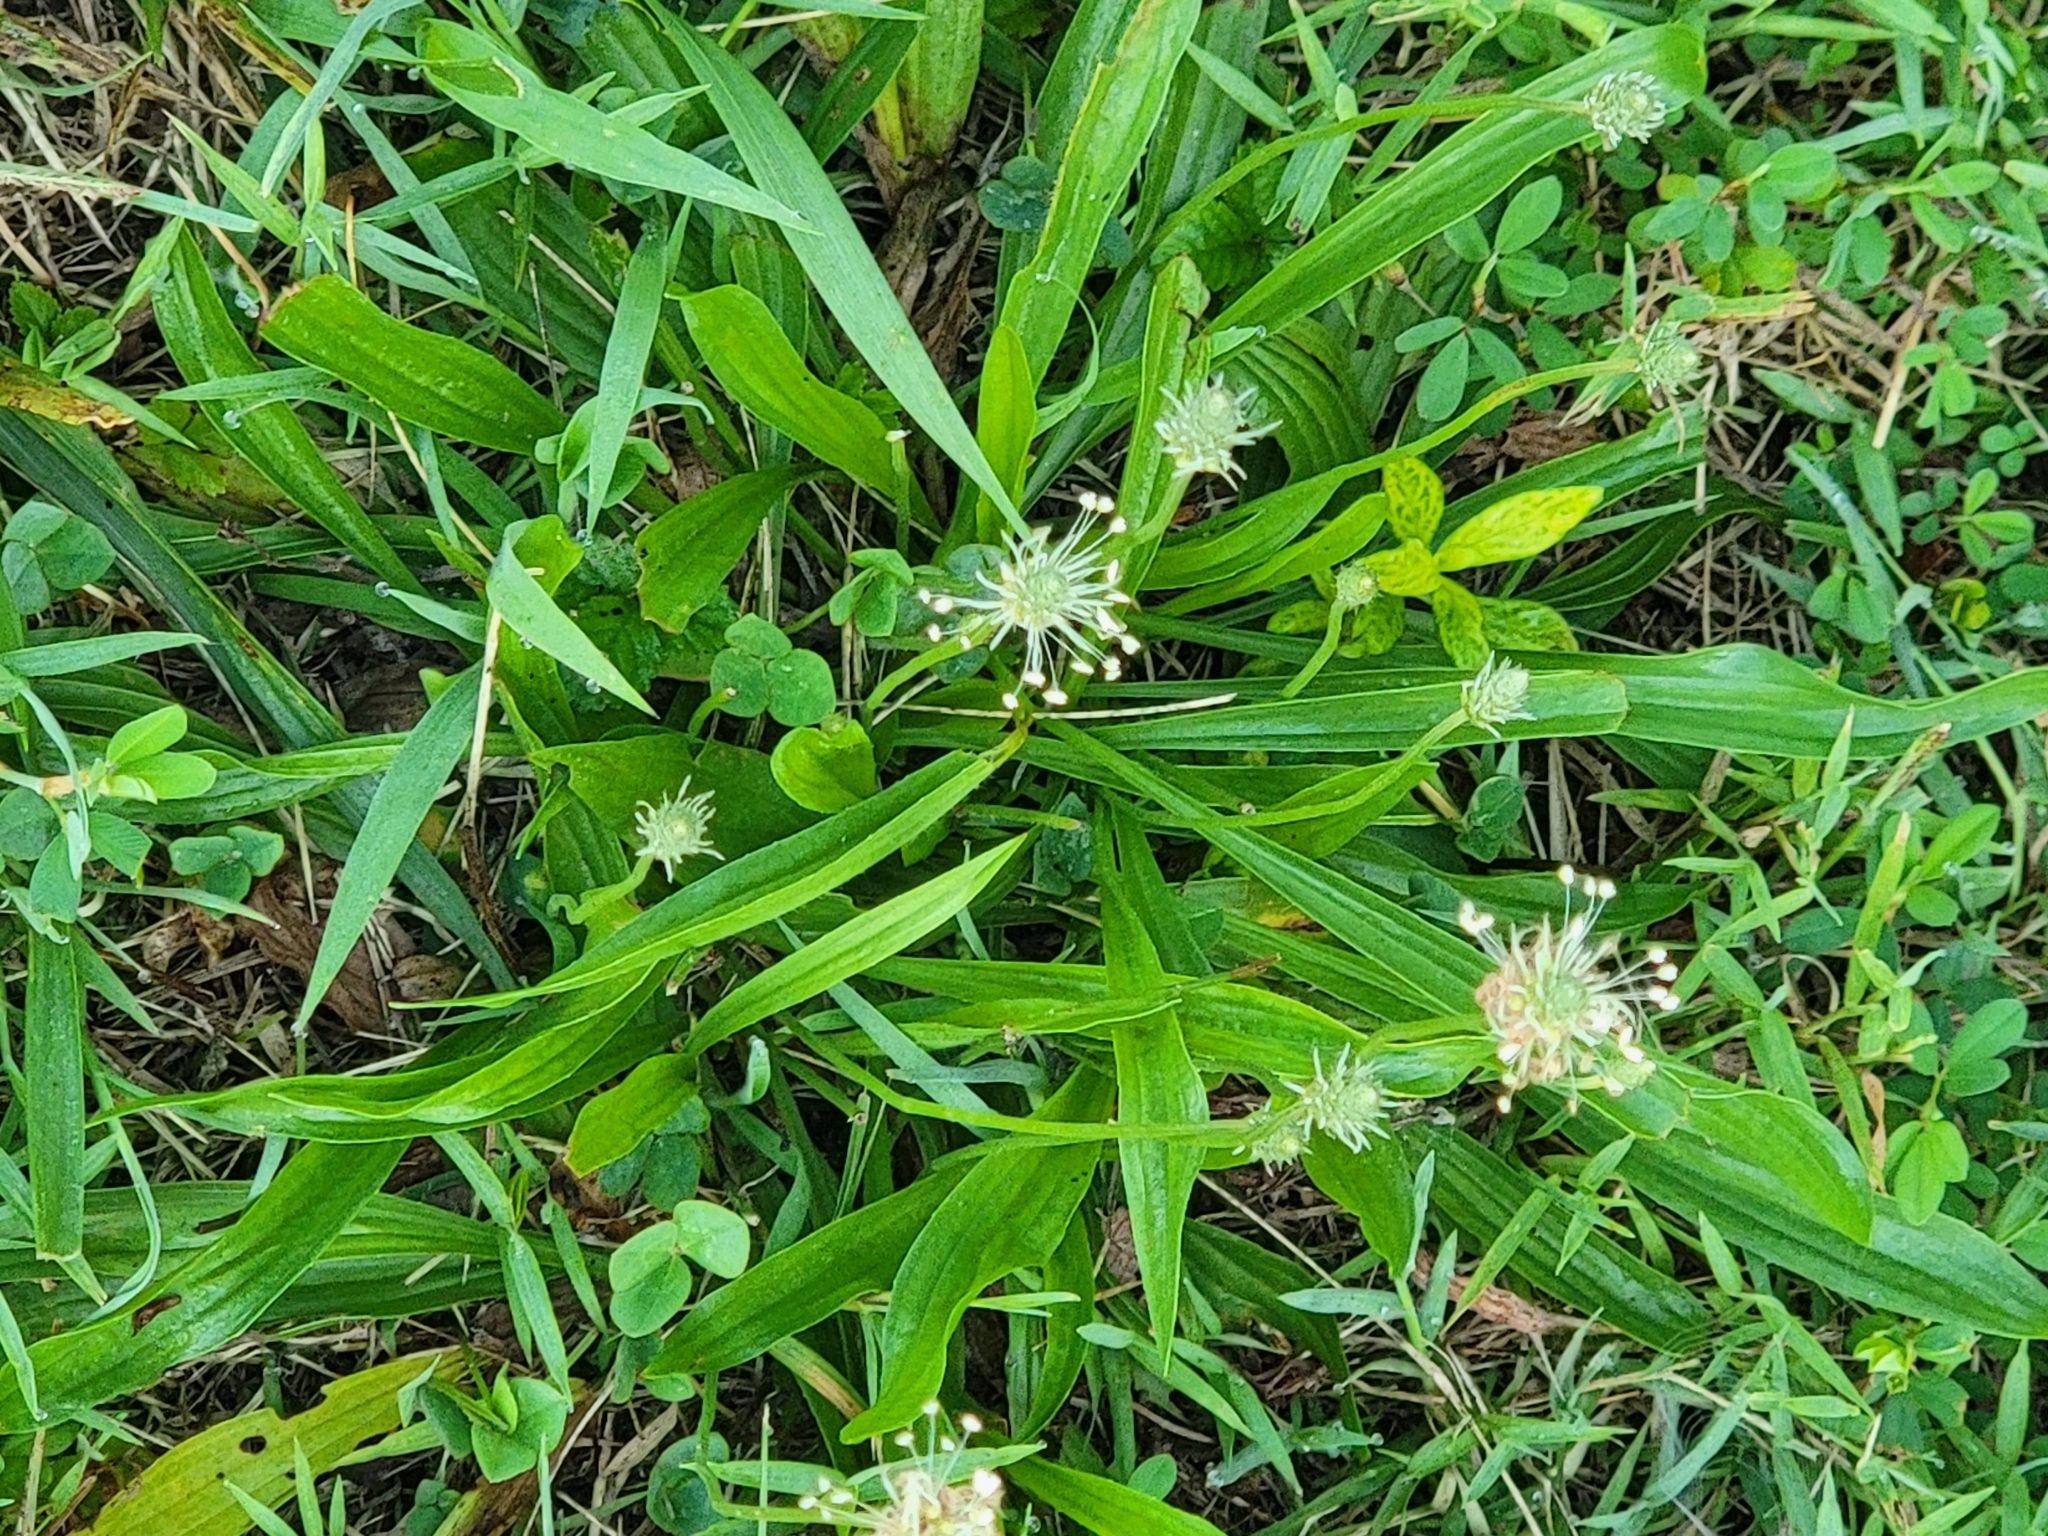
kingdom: Plantae
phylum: Tracheophyta
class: Magnoliopsida
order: Lamiales
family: Plantaginaceae
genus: Plantago
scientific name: Plantago lanceolata
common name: Ribwort plantain
